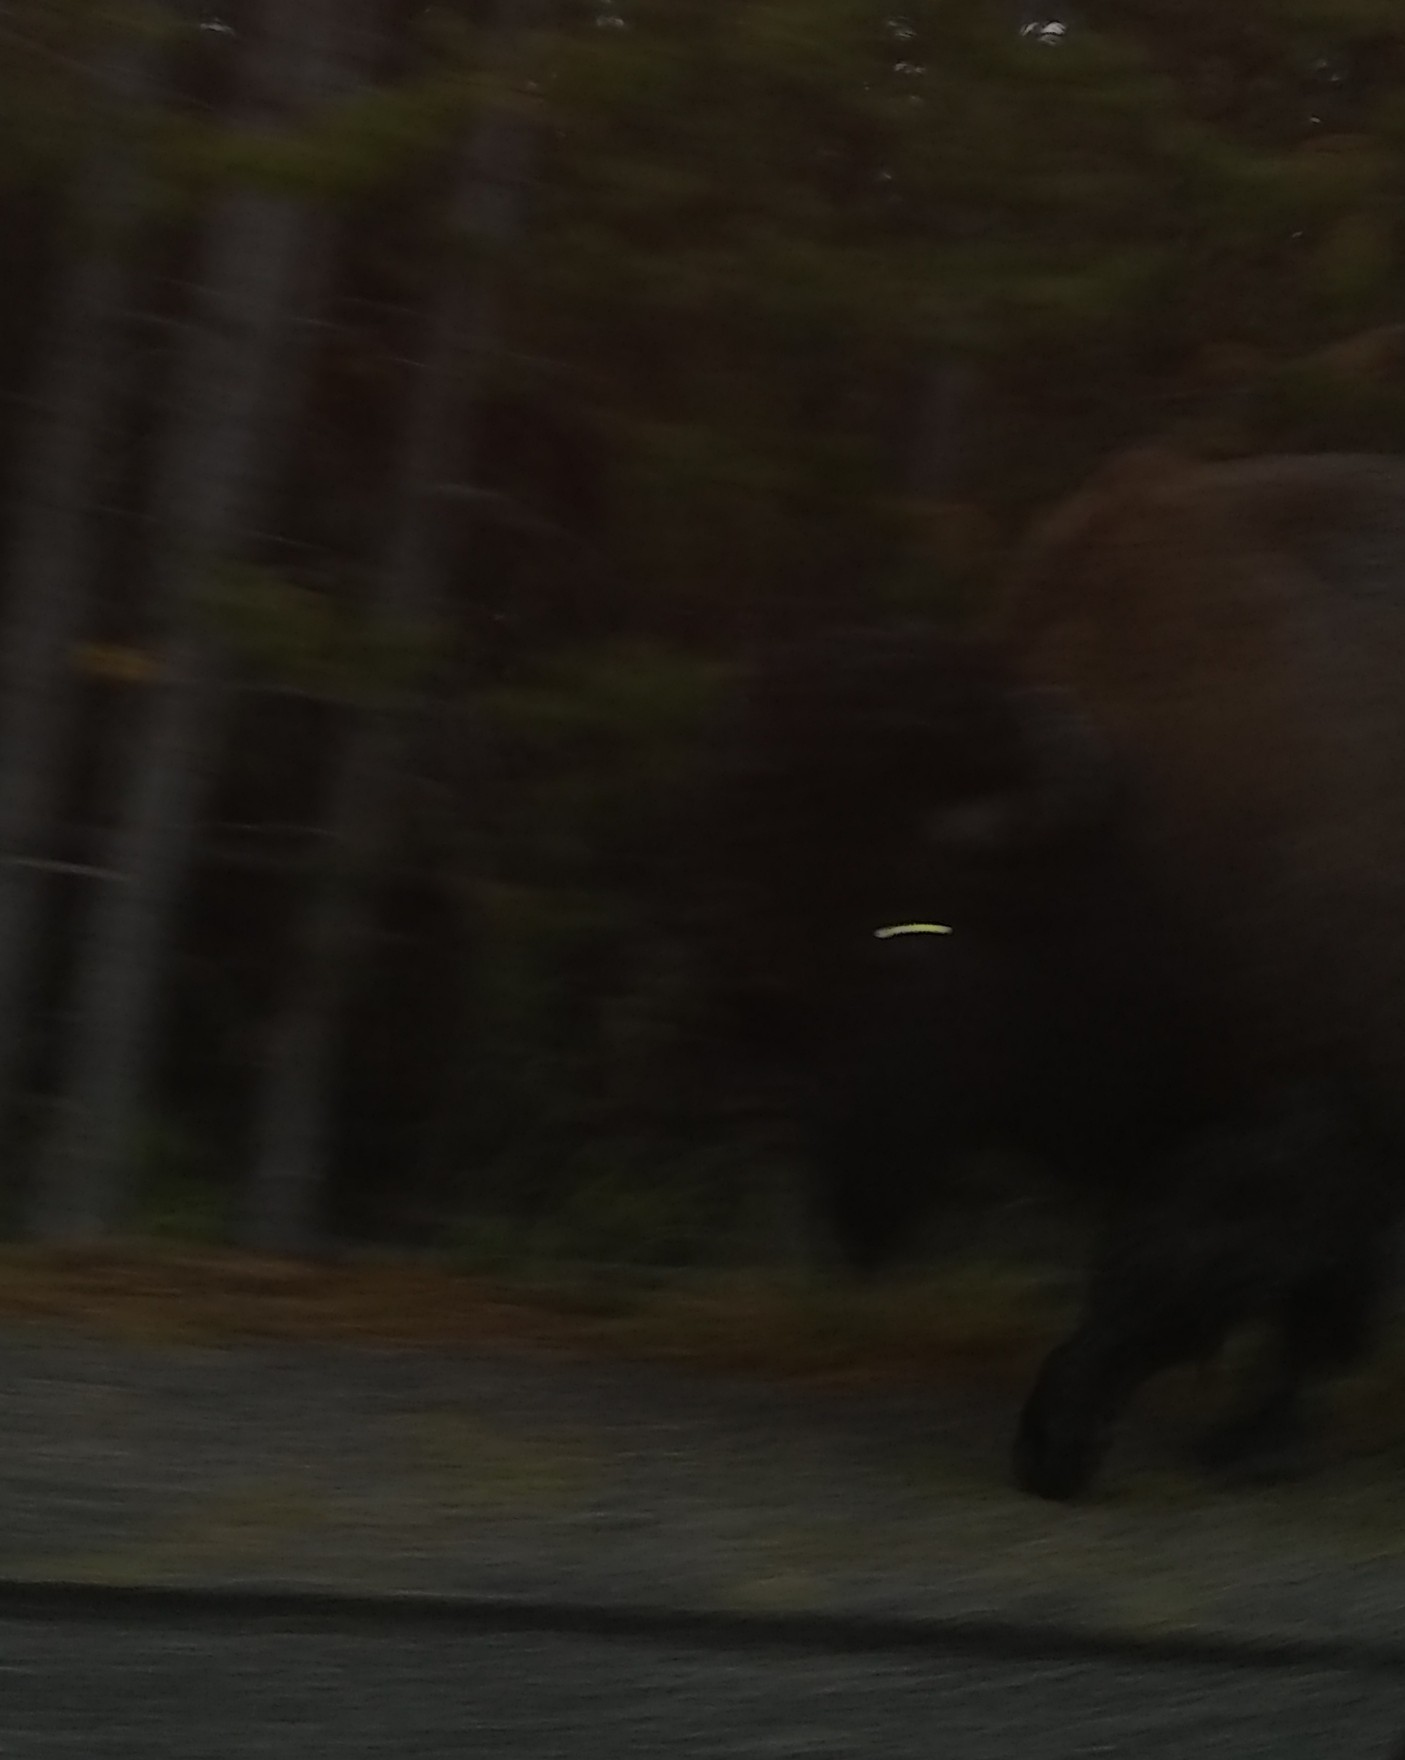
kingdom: Animalia
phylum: Chordata
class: Mammalia
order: Artiodactyla
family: Bovidae
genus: Bison
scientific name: Bison bison
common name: American bison
